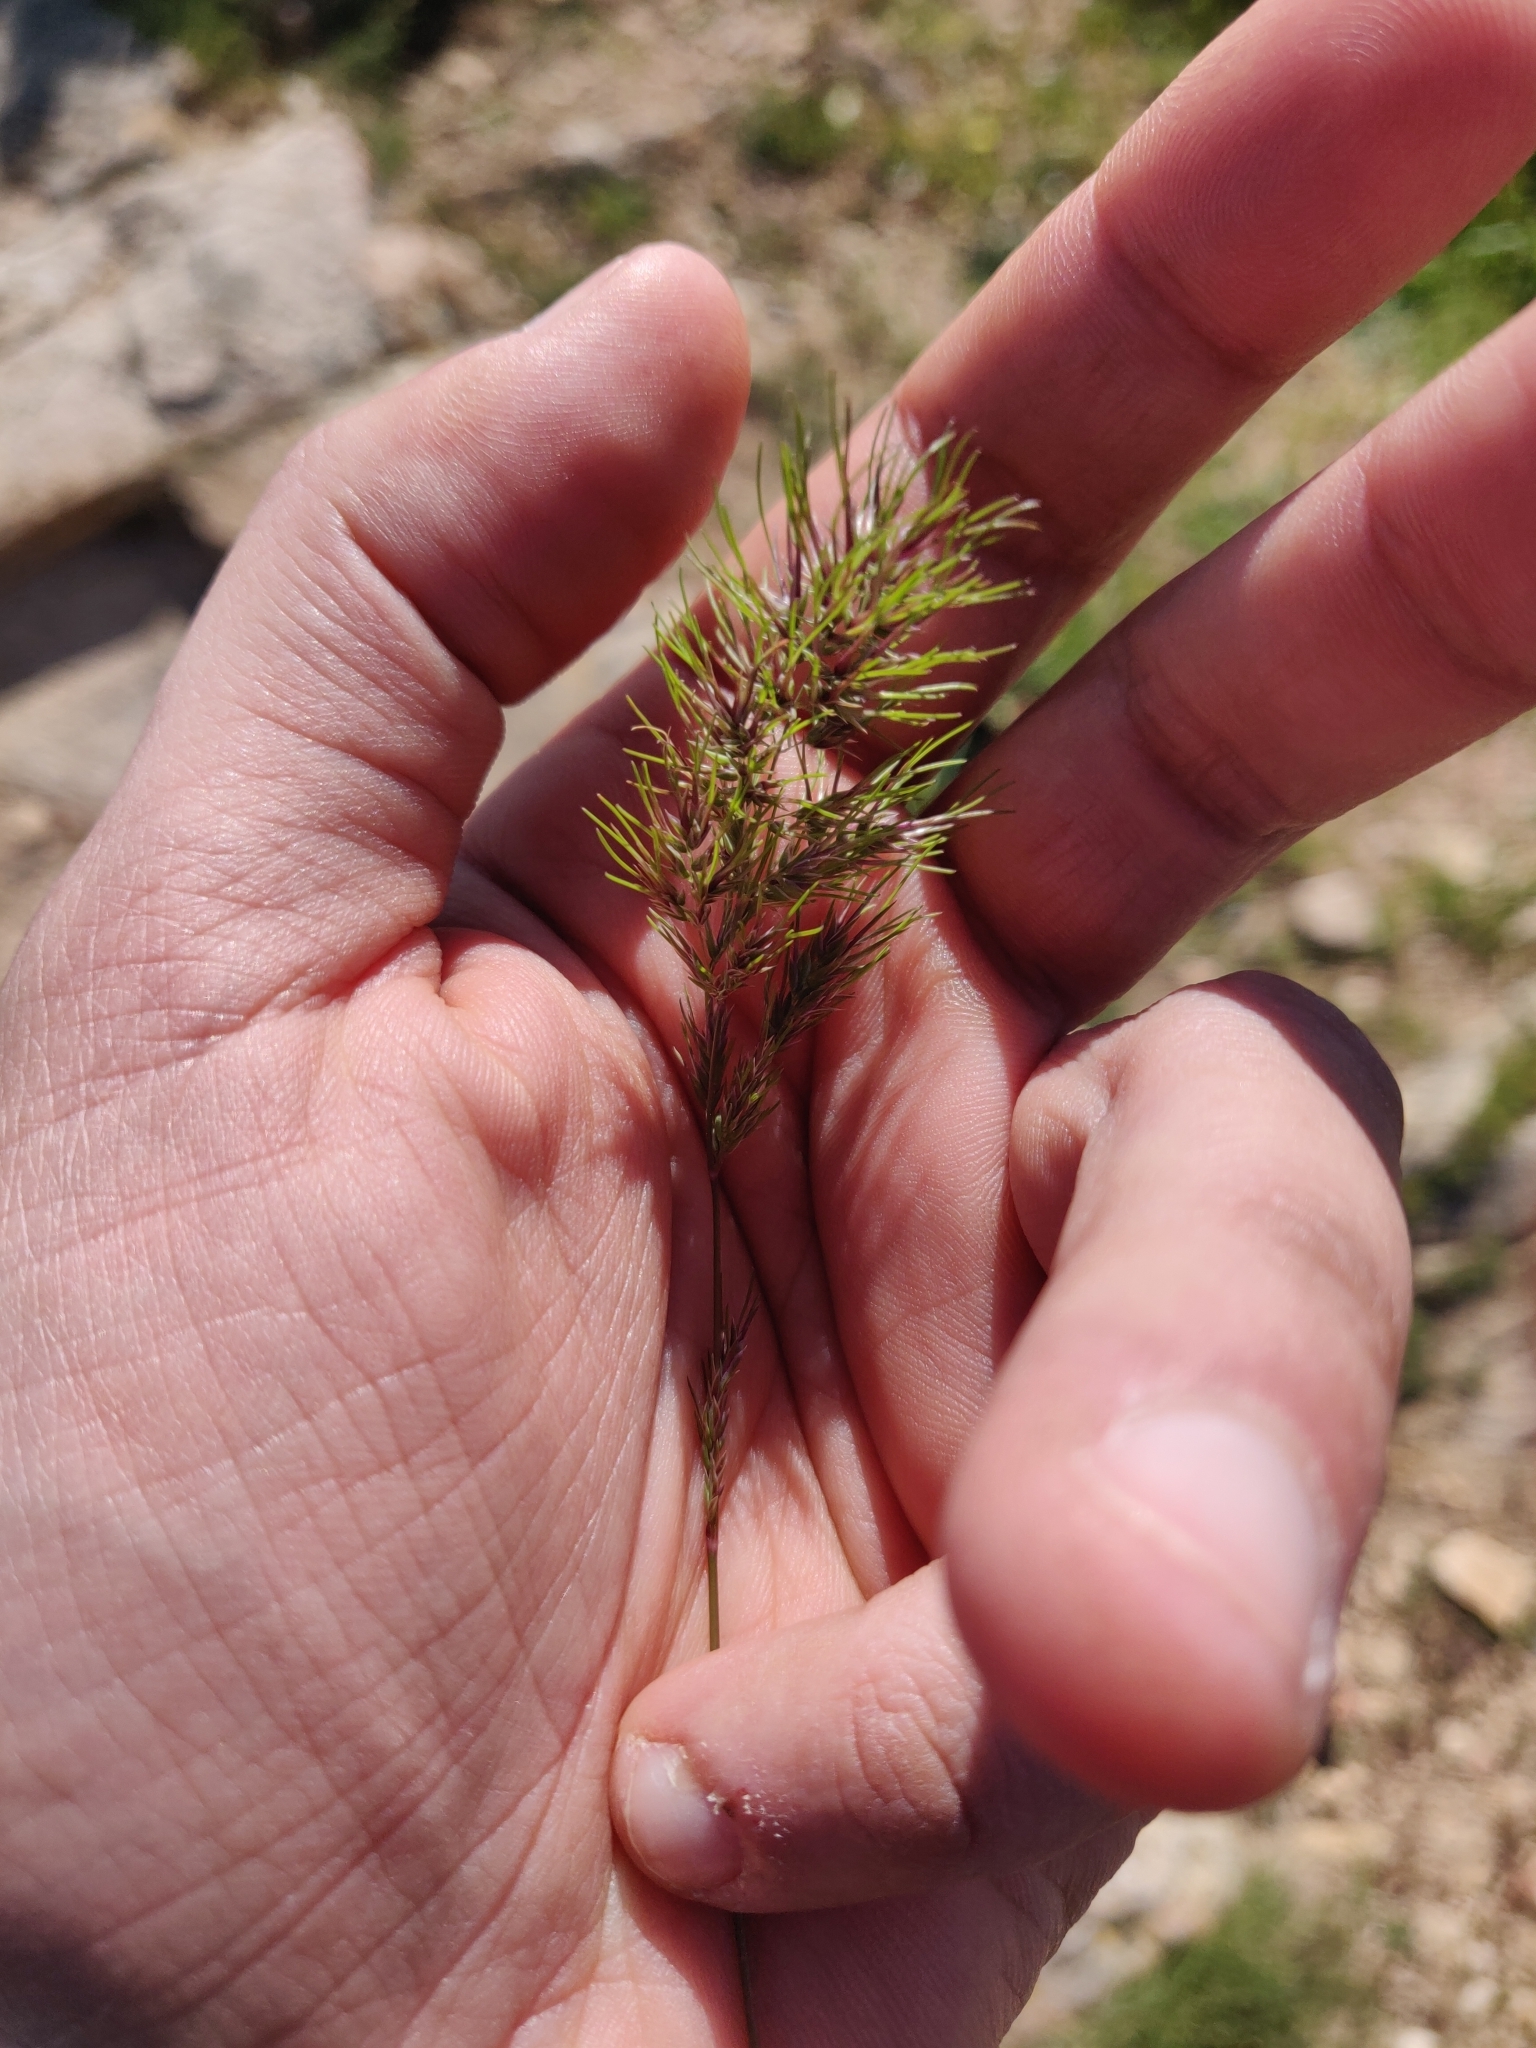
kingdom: Plantae
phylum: Tracheophyta
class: Liliopsida
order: Poales
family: Poaceae
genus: Poa
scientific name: Poa bulbosa
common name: Bulbous bluegrass
